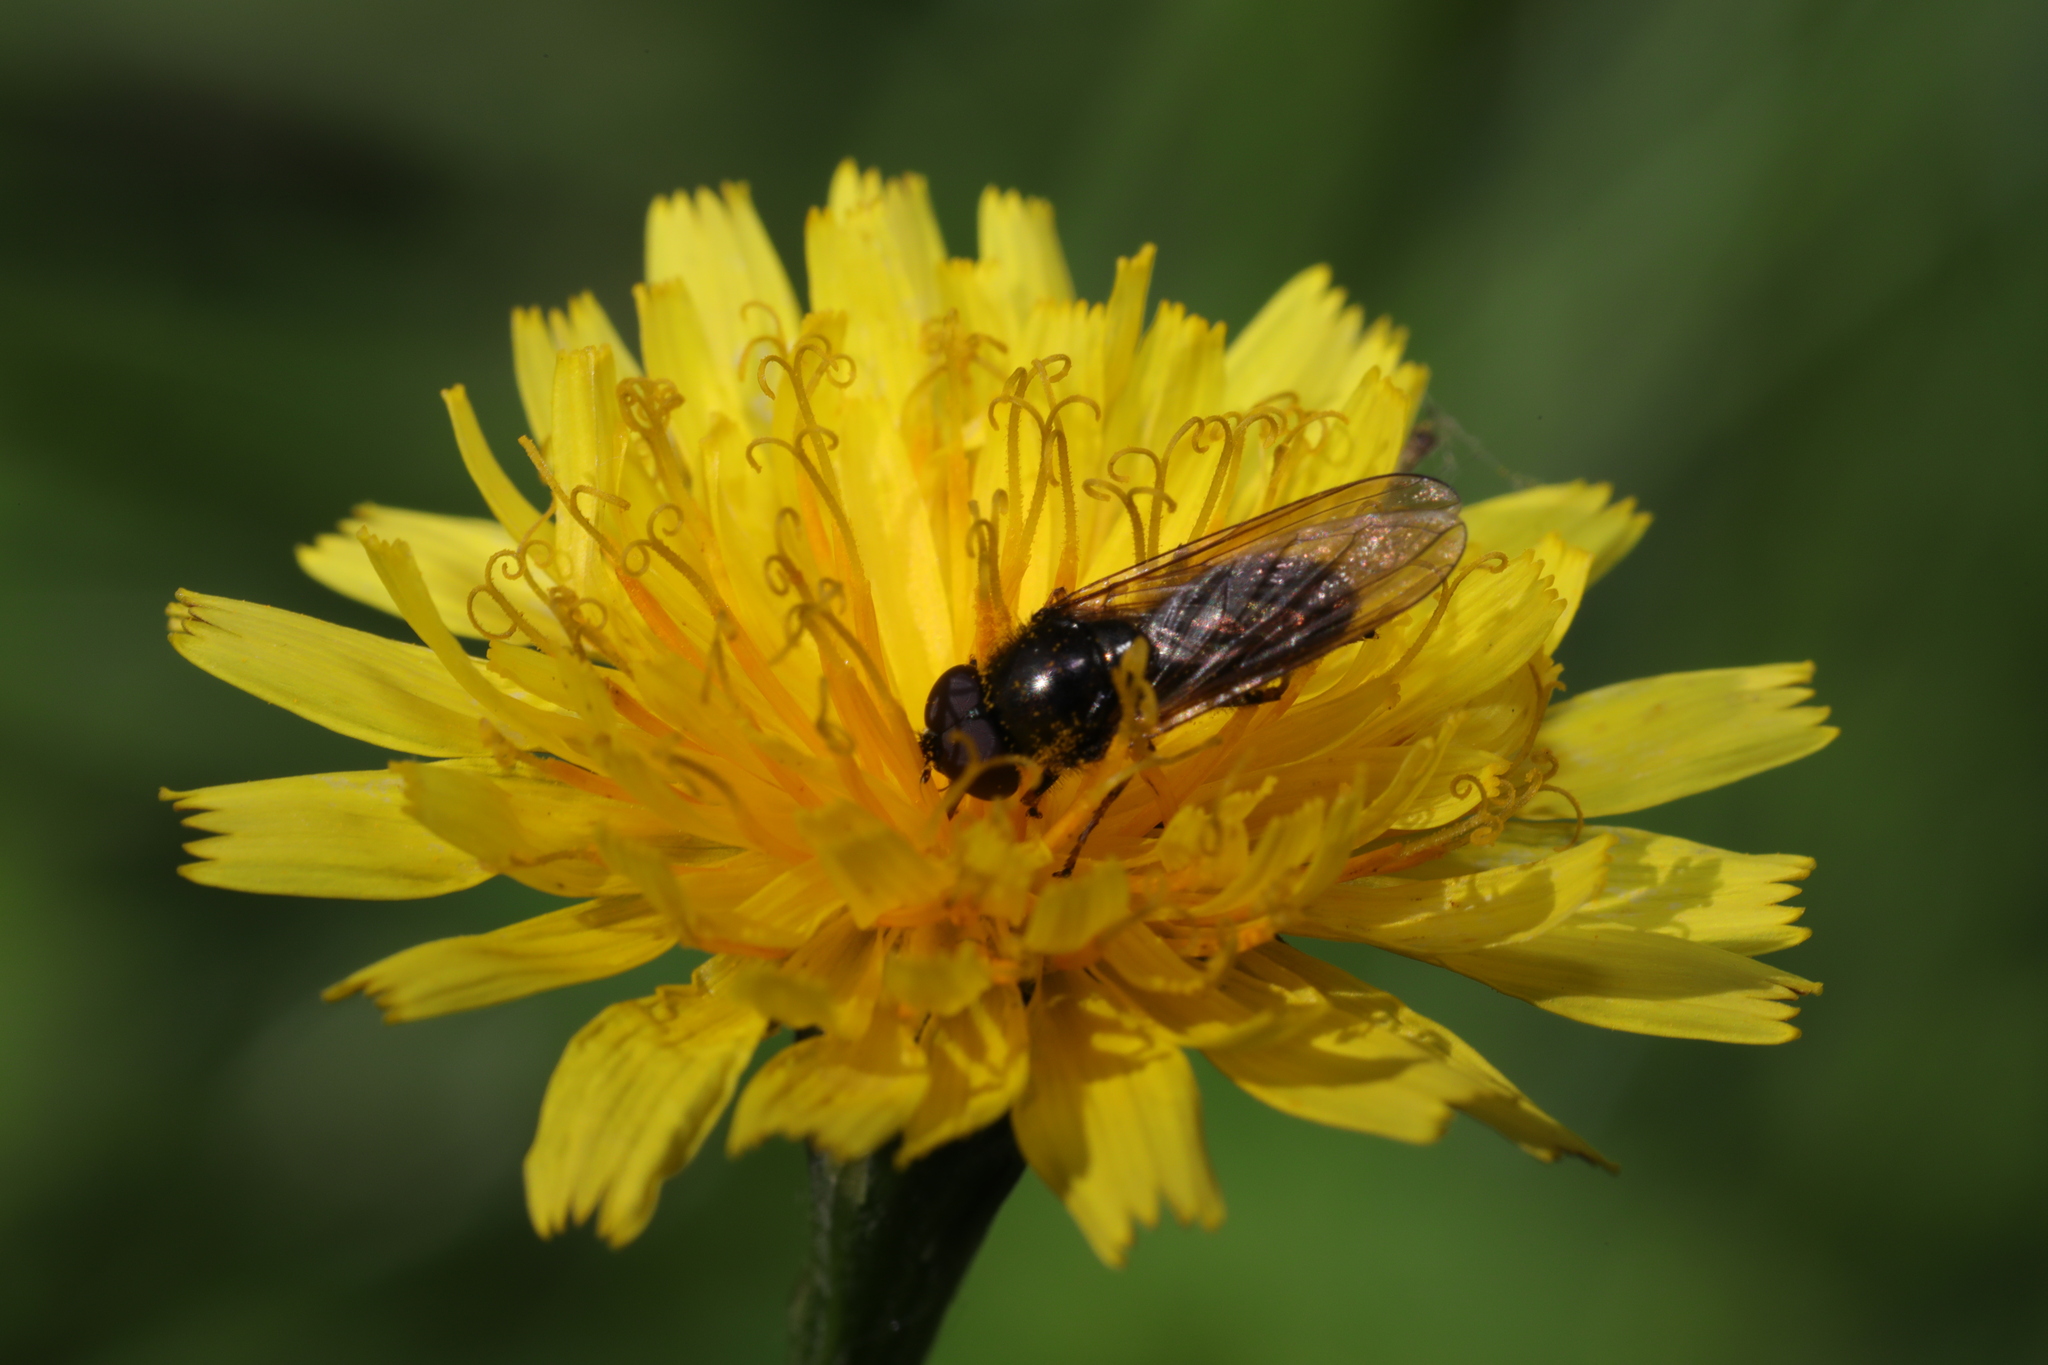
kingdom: Animalia
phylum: Arthropoda
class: Insecta
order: Diptera
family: Syrphidae
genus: Cheilosia
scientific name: Cheilosia
